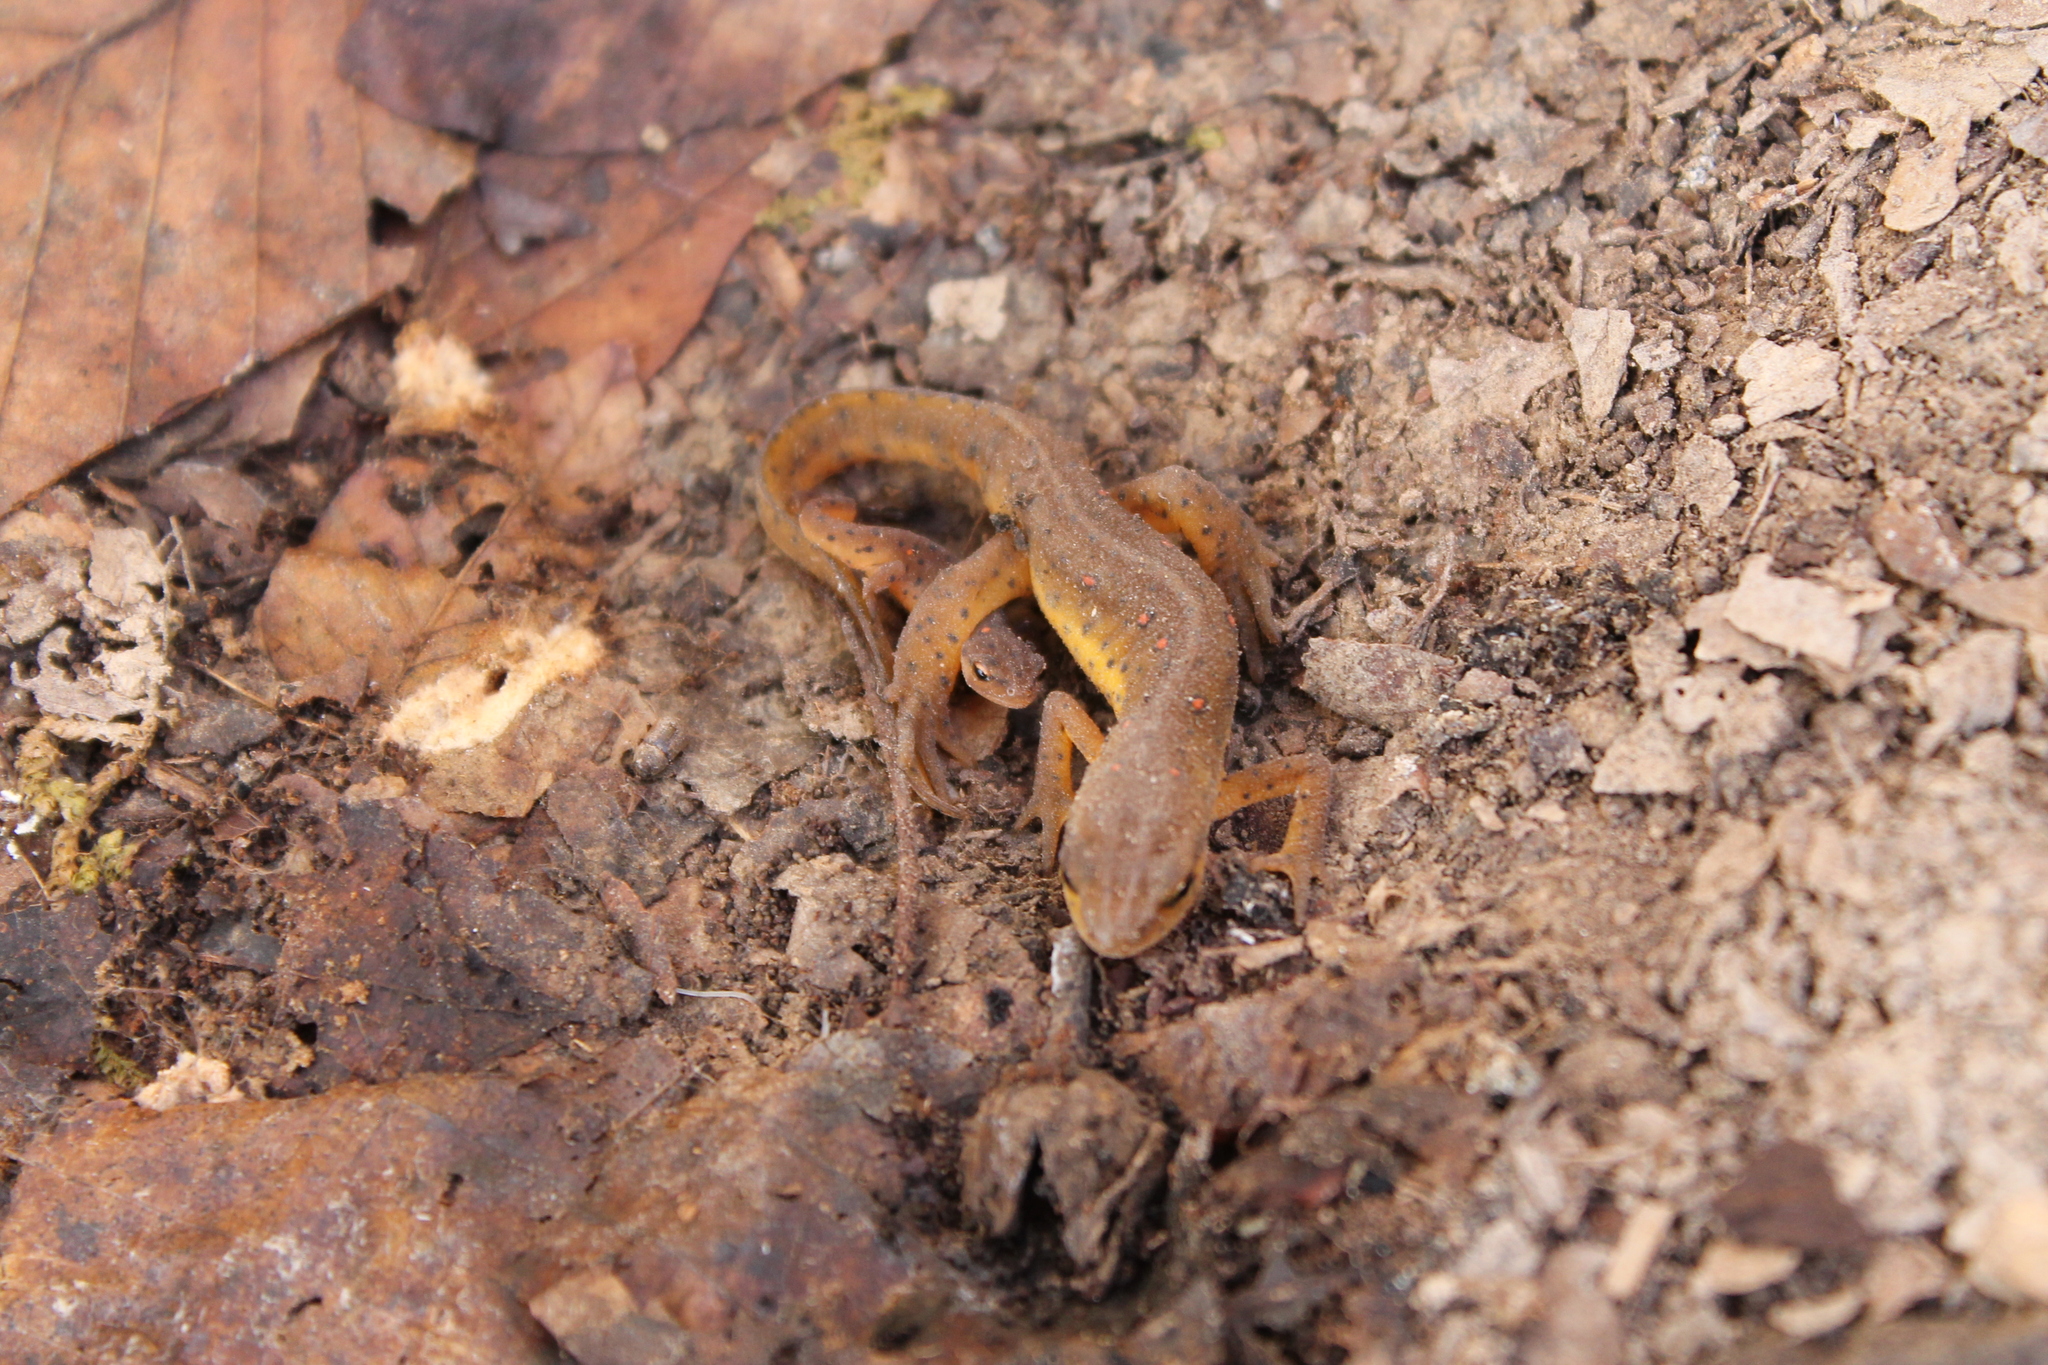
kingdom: Animalia
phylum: Chordata
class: Amphibia
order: Caudata
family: Salamandridae
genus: Notophthalmus
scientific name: Notophthalmus viridescens
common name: Eastern newt
